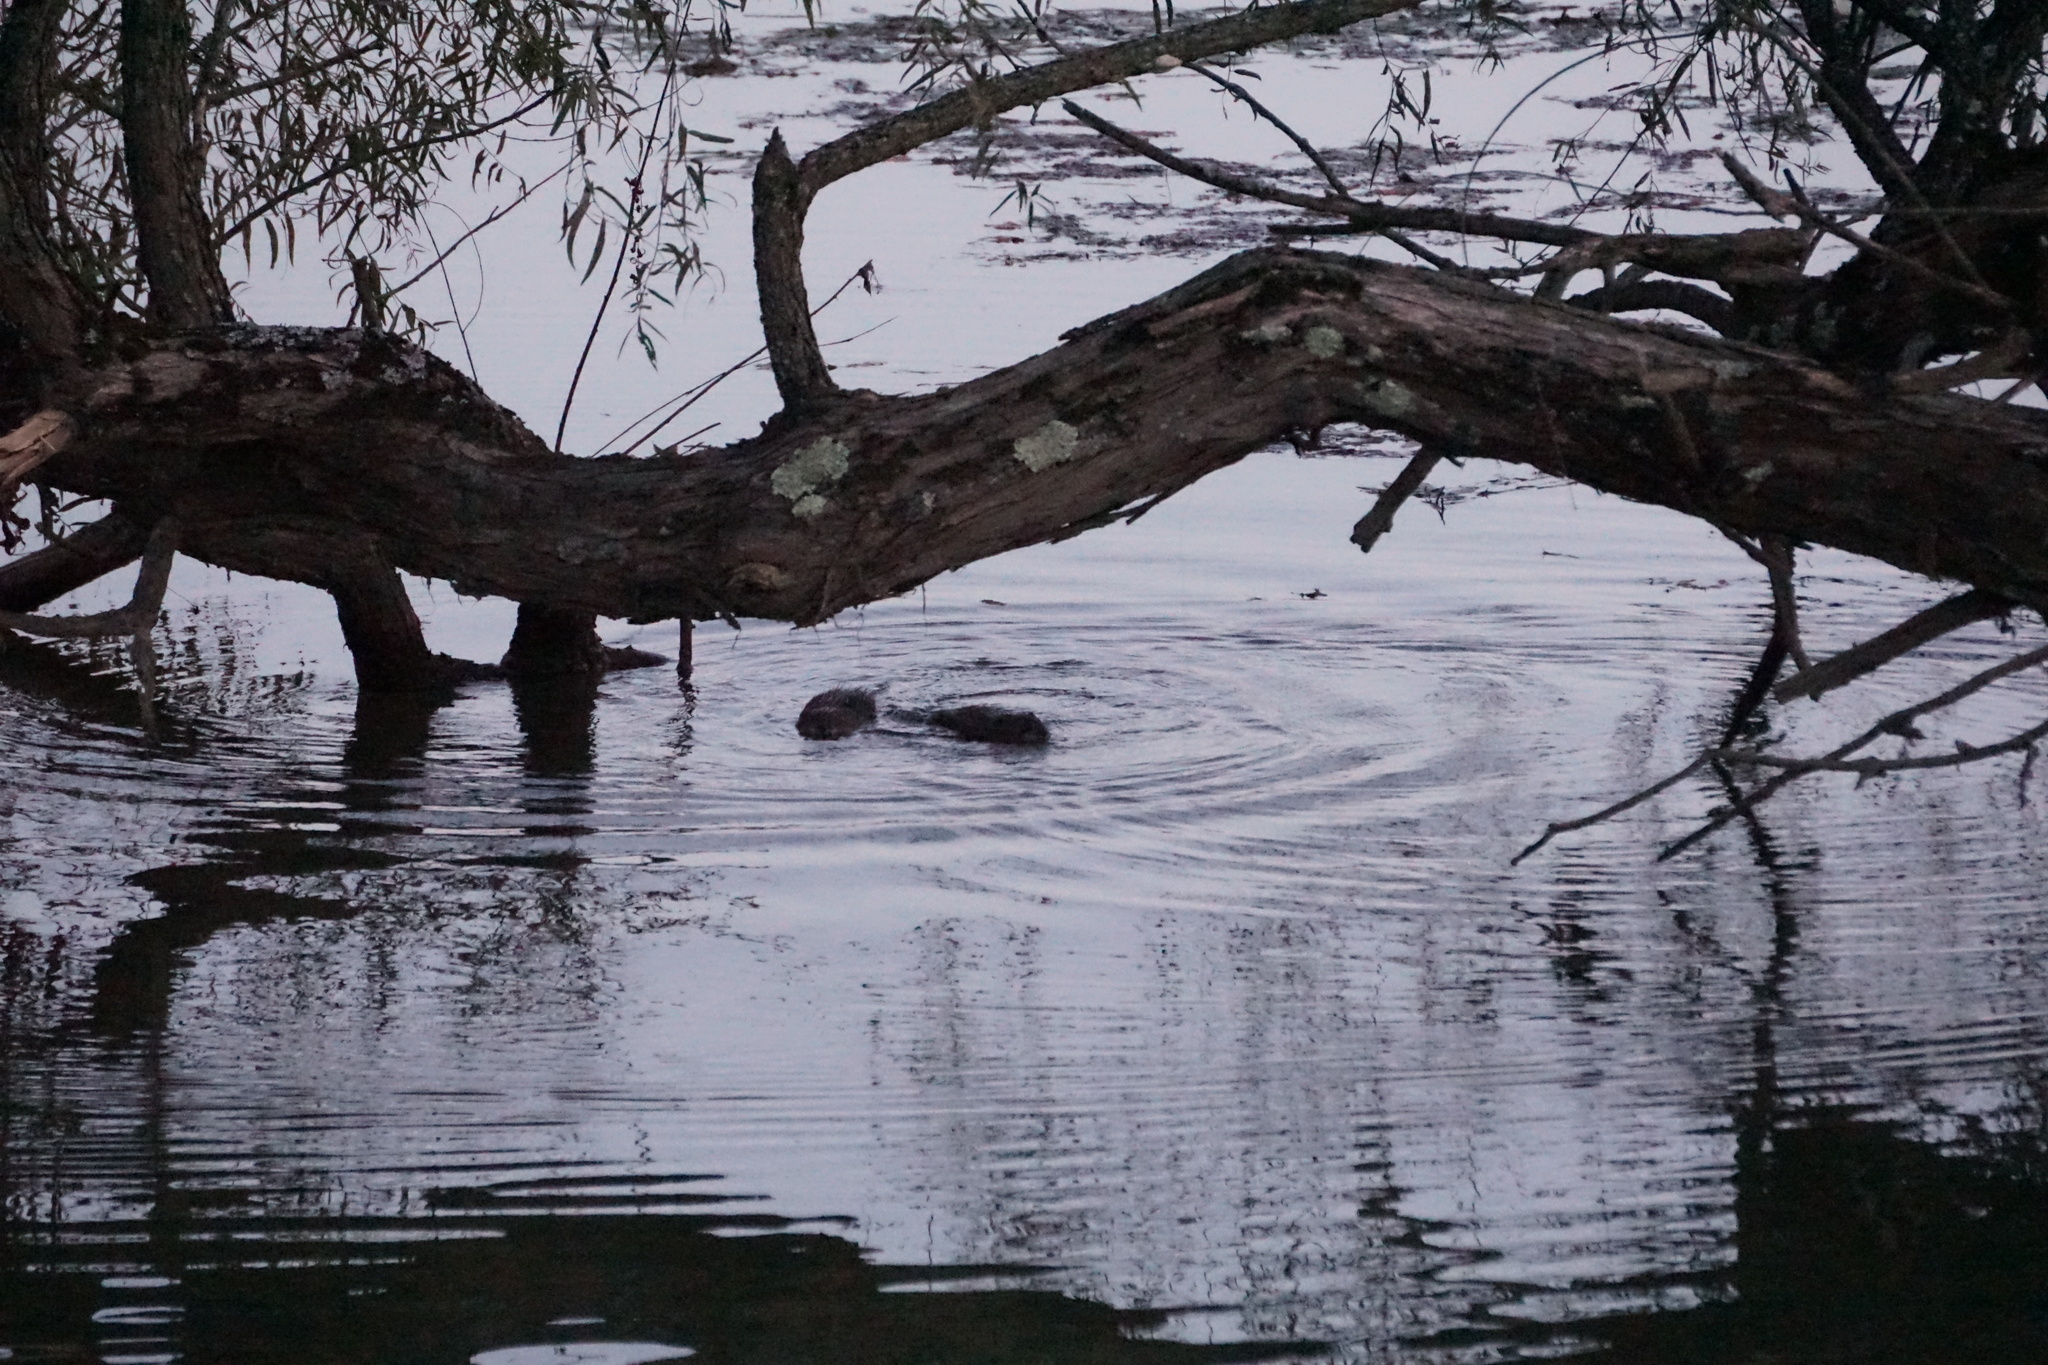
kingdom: Animalia
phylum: Chordata
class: Mammalia
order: Rodentia
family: Castoridae
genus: Castor
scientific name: Castor canadensis
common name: American beaver
